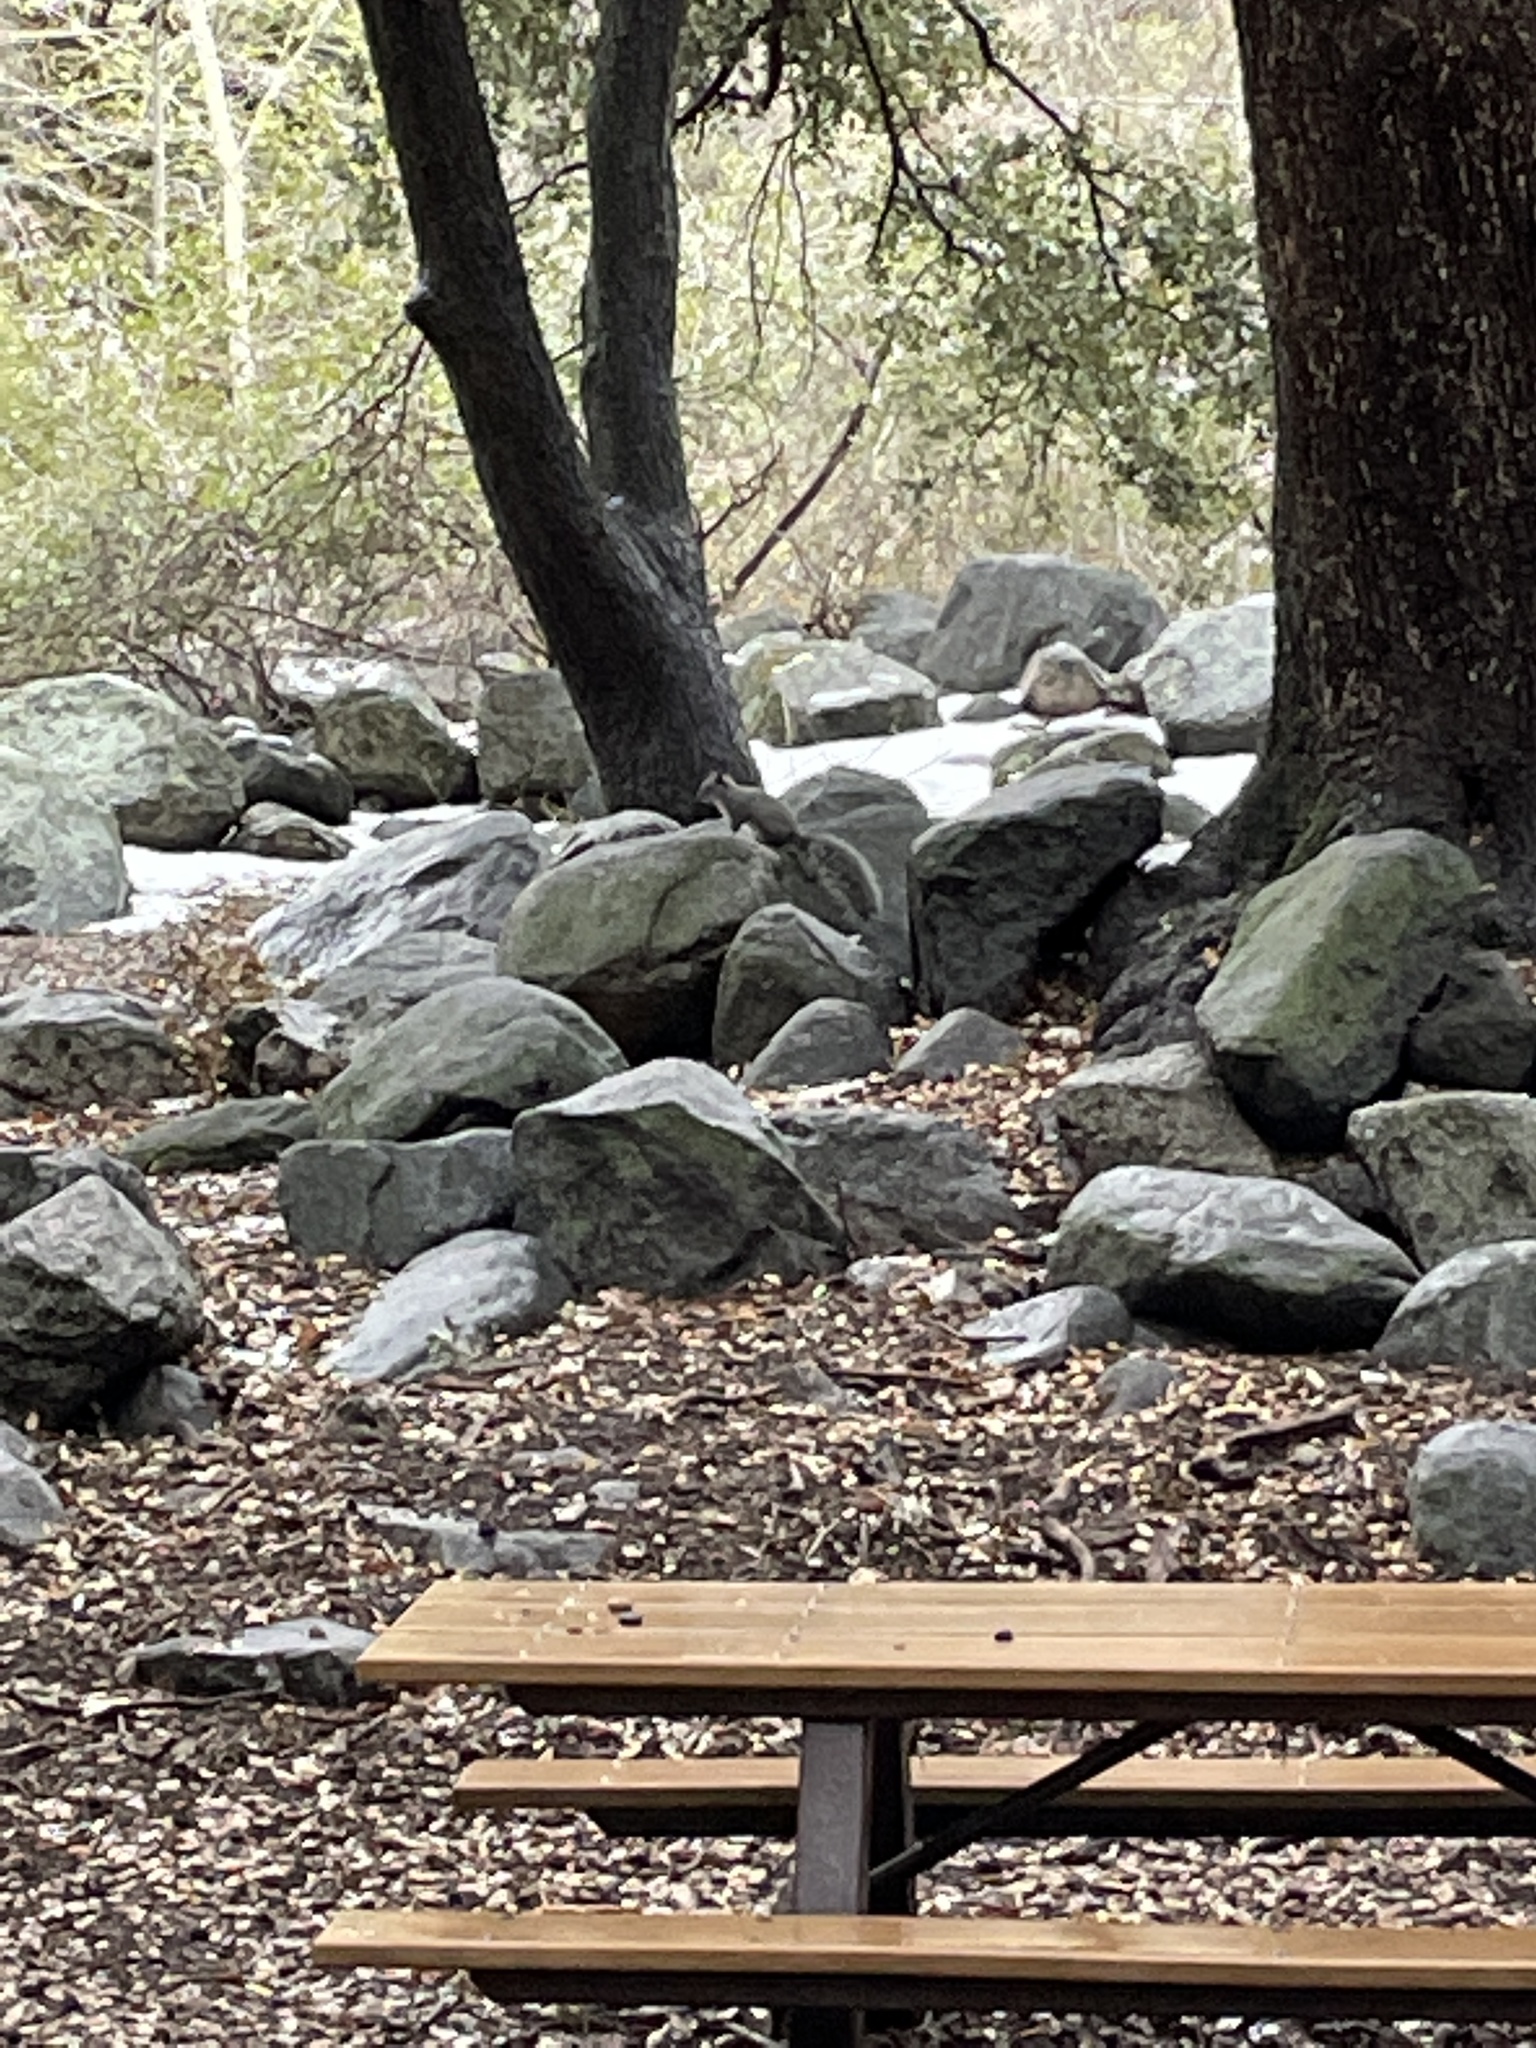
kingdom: Animalia
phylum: Chordata
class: Mammalia
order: Rodentia
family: Sciuridae
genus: Sciurus
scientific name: Sciurus griseus
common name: Western gray squirrel
